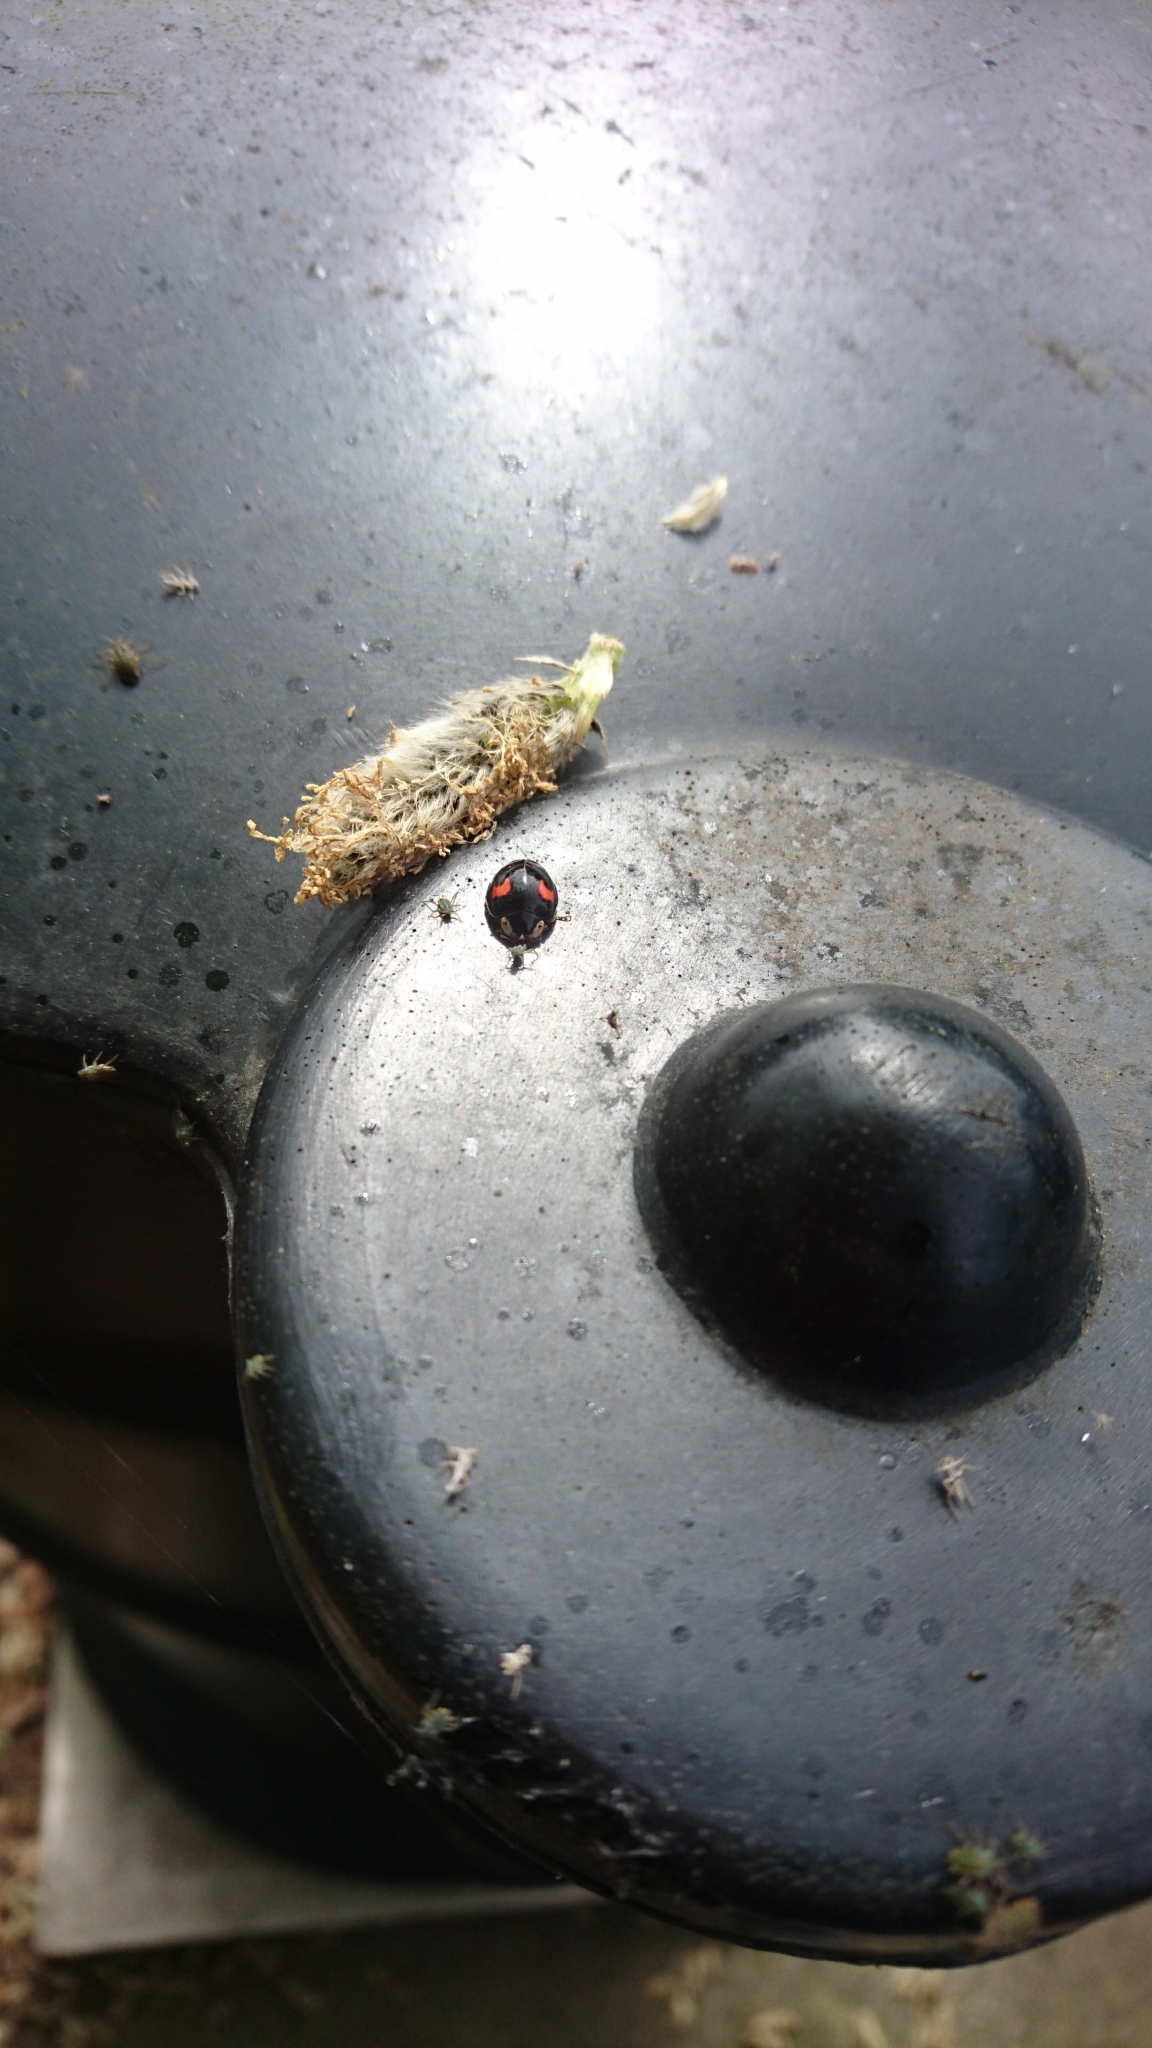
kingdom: Animalia
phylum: Arthropoda
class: Insecta
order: Coleoptera
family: Coccinellidae
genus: Harmonia
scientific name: Harmonia axyridis
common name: Harlequin ladybird
